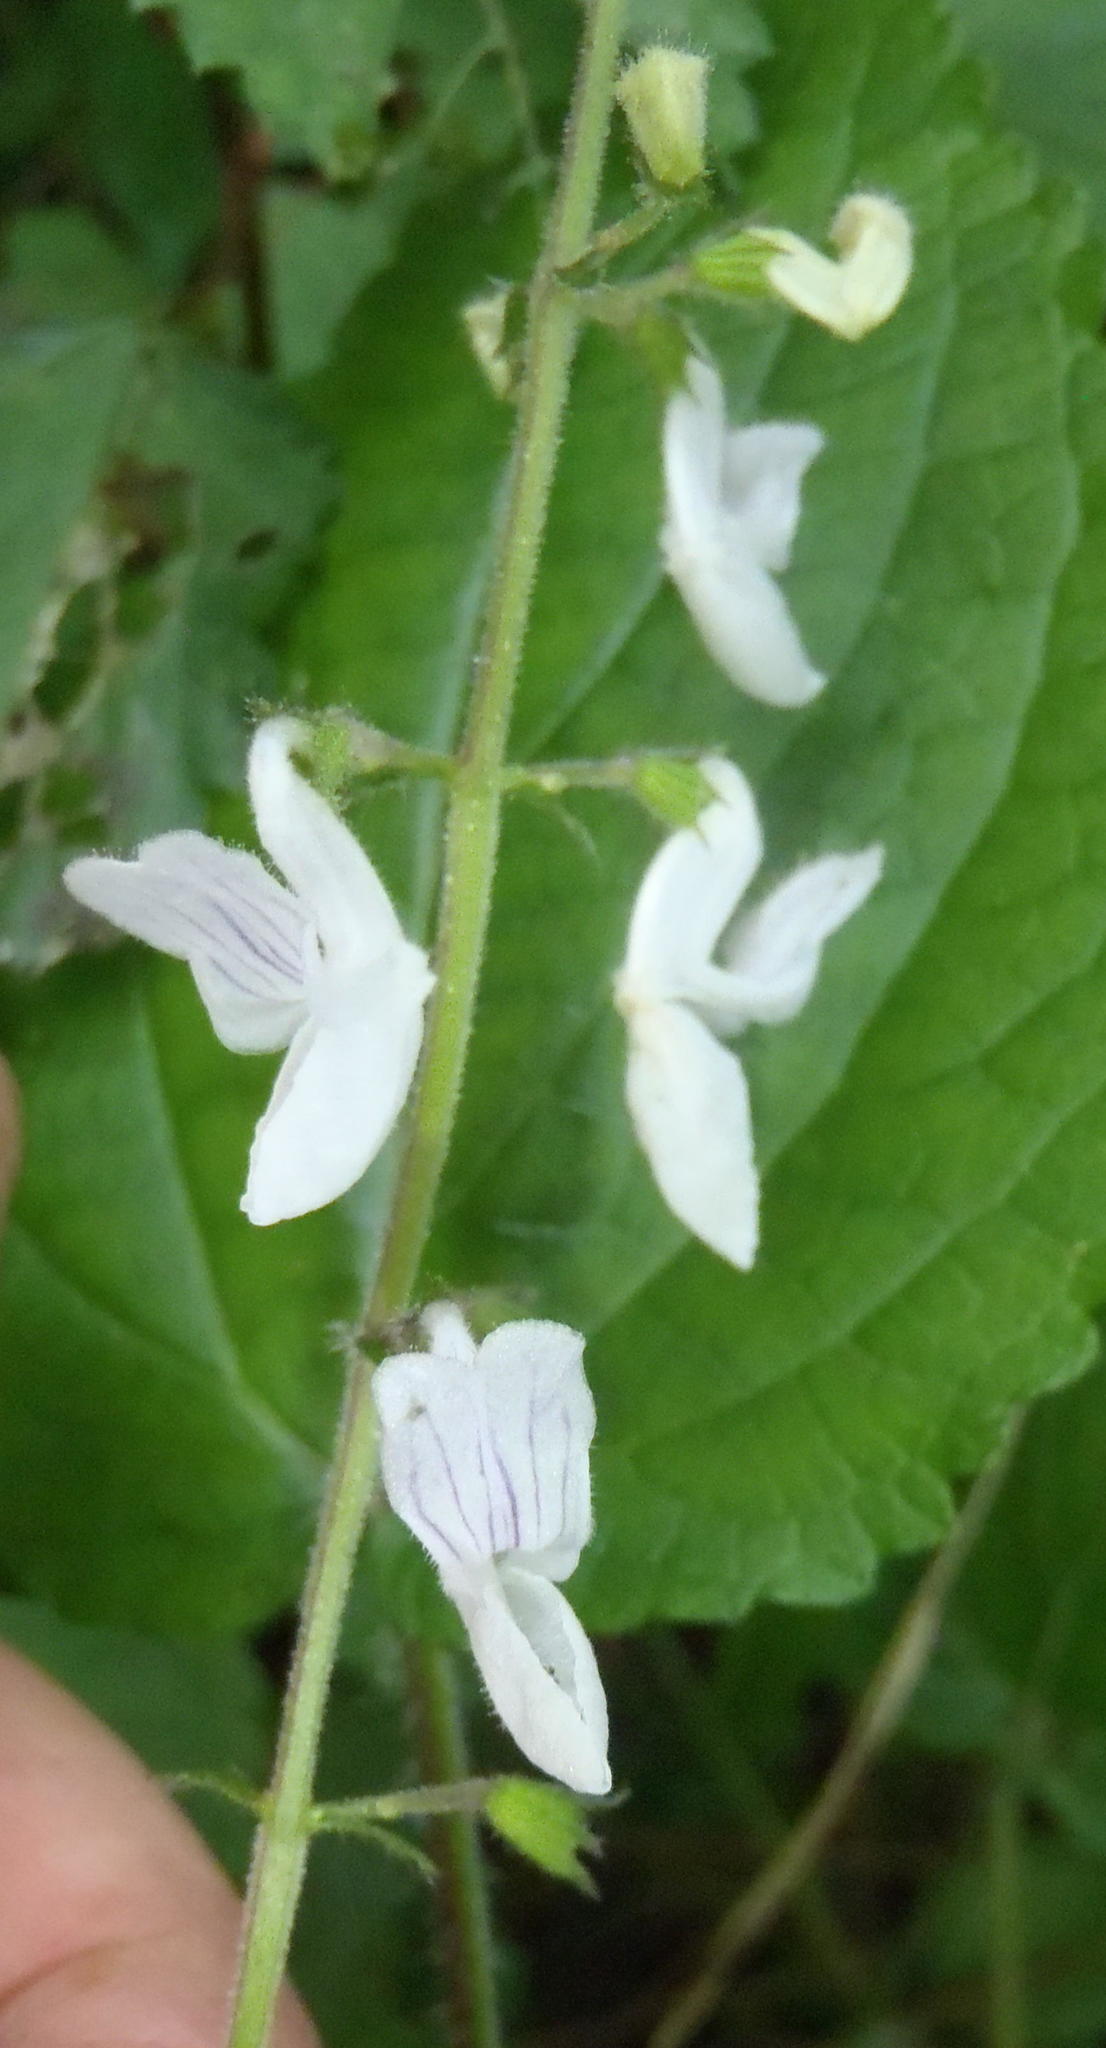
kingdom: Plantae
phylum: Tracheophyta
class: Magnoliopsida
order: Lamiales
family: Lamiaceae
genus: Equilabium
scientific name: Equilabium laxiflorum
